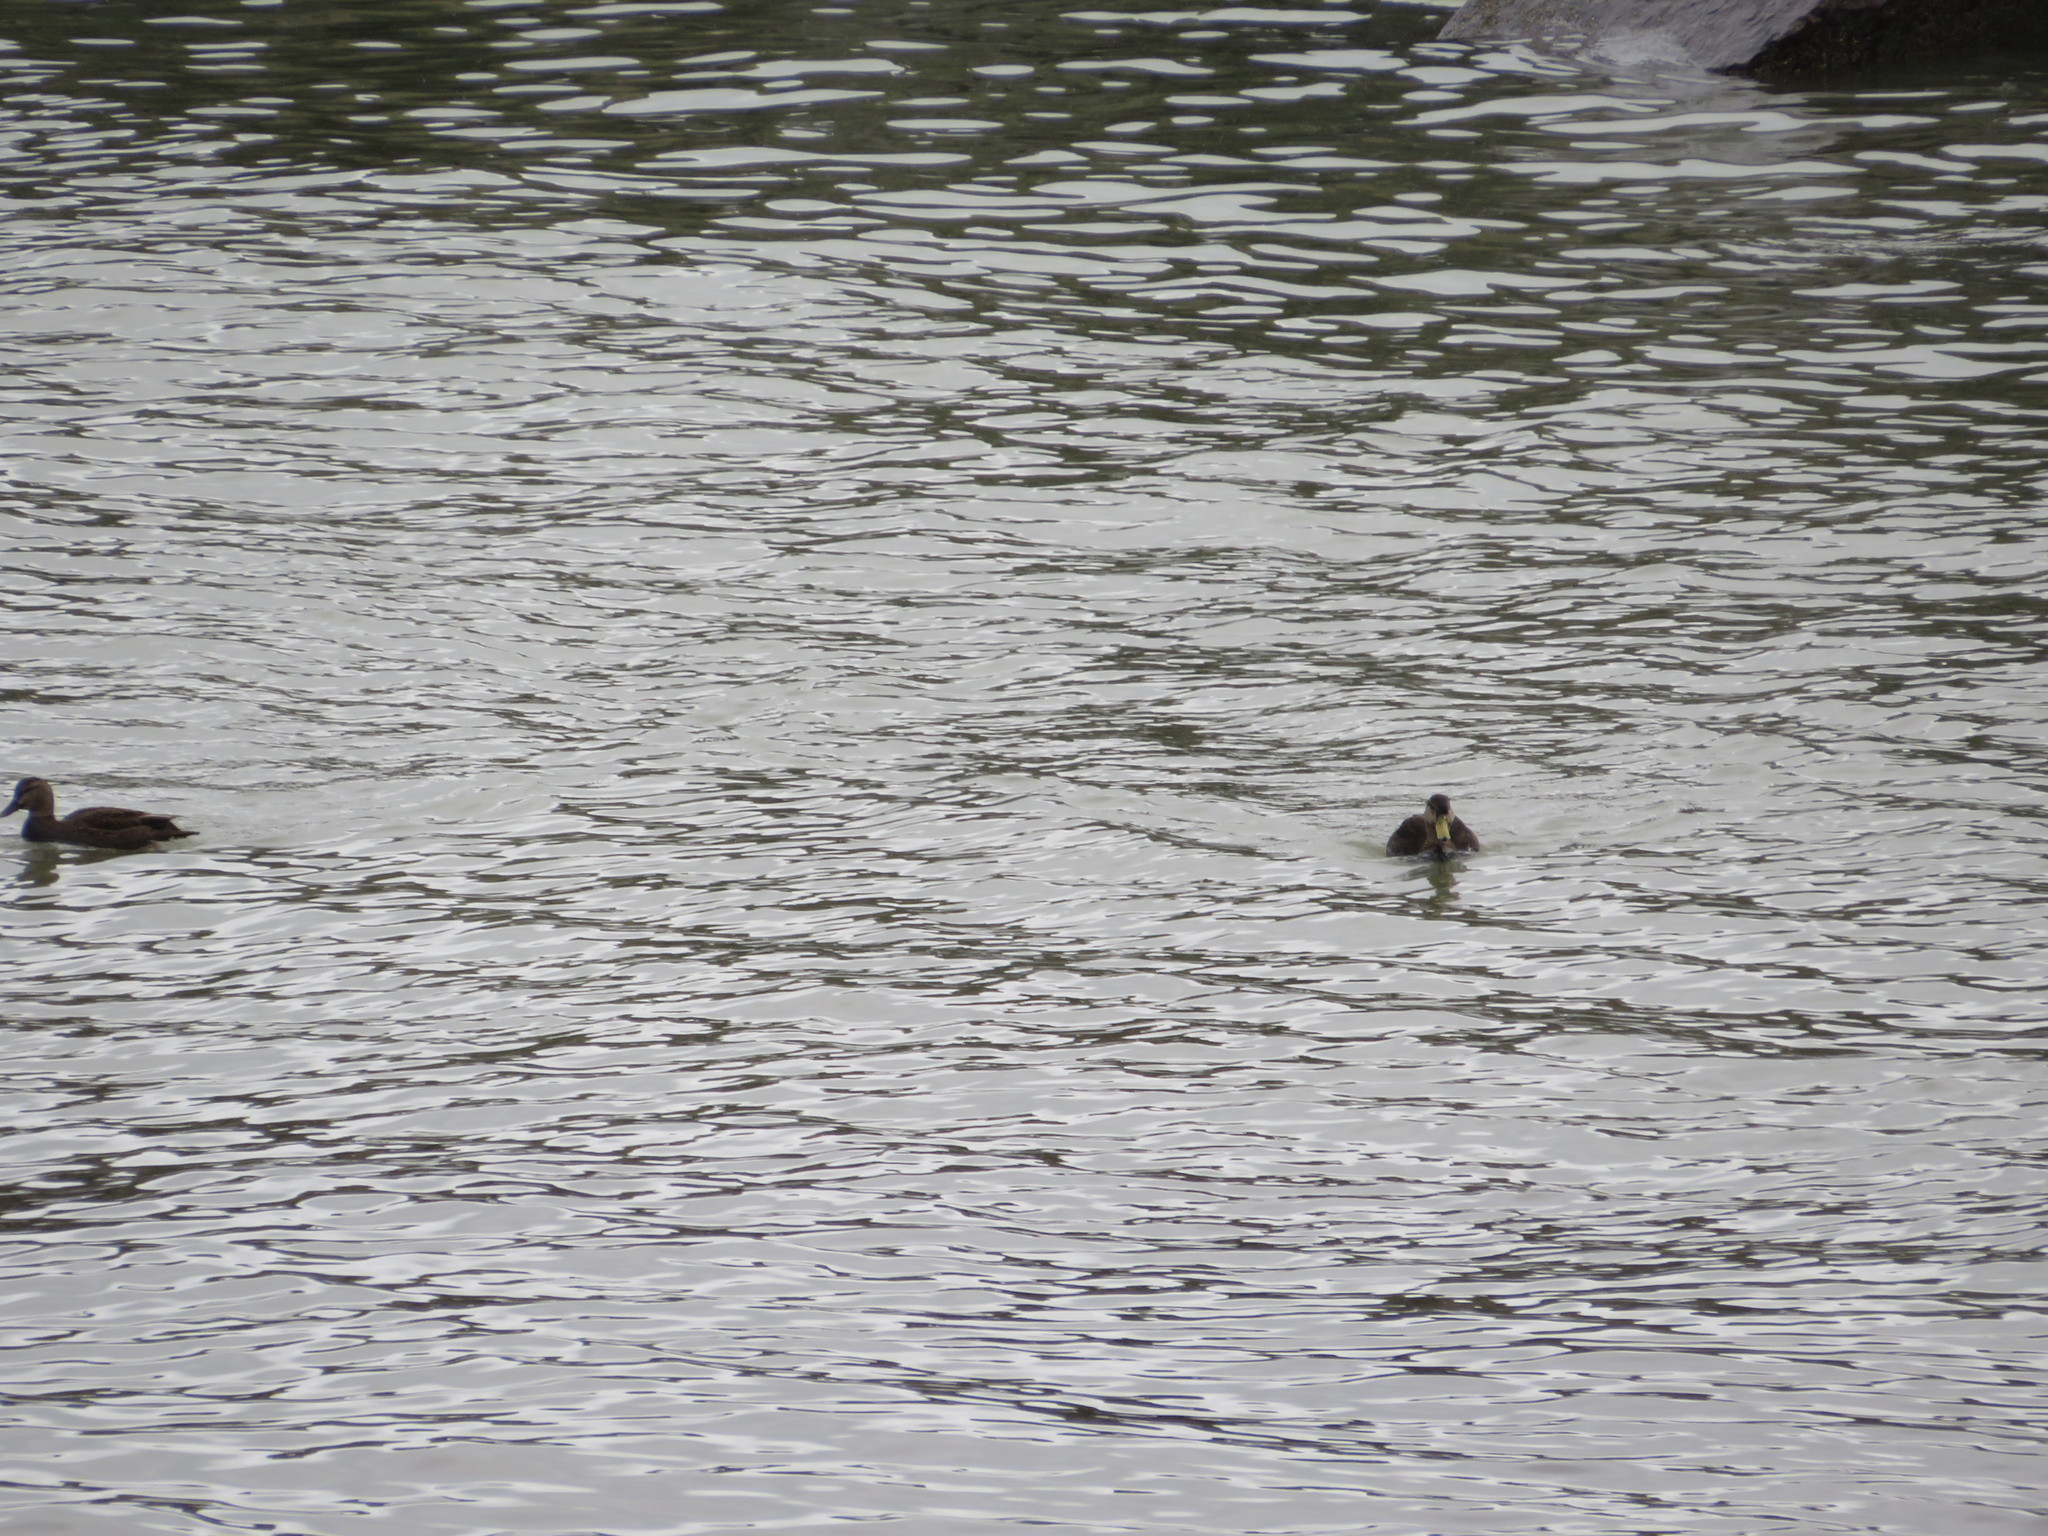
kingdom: Animalia
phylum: Chordata
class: Aves
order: Anseriformes
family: Anatidae
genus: Anas
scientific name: Anas rubripes
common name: American black duck
